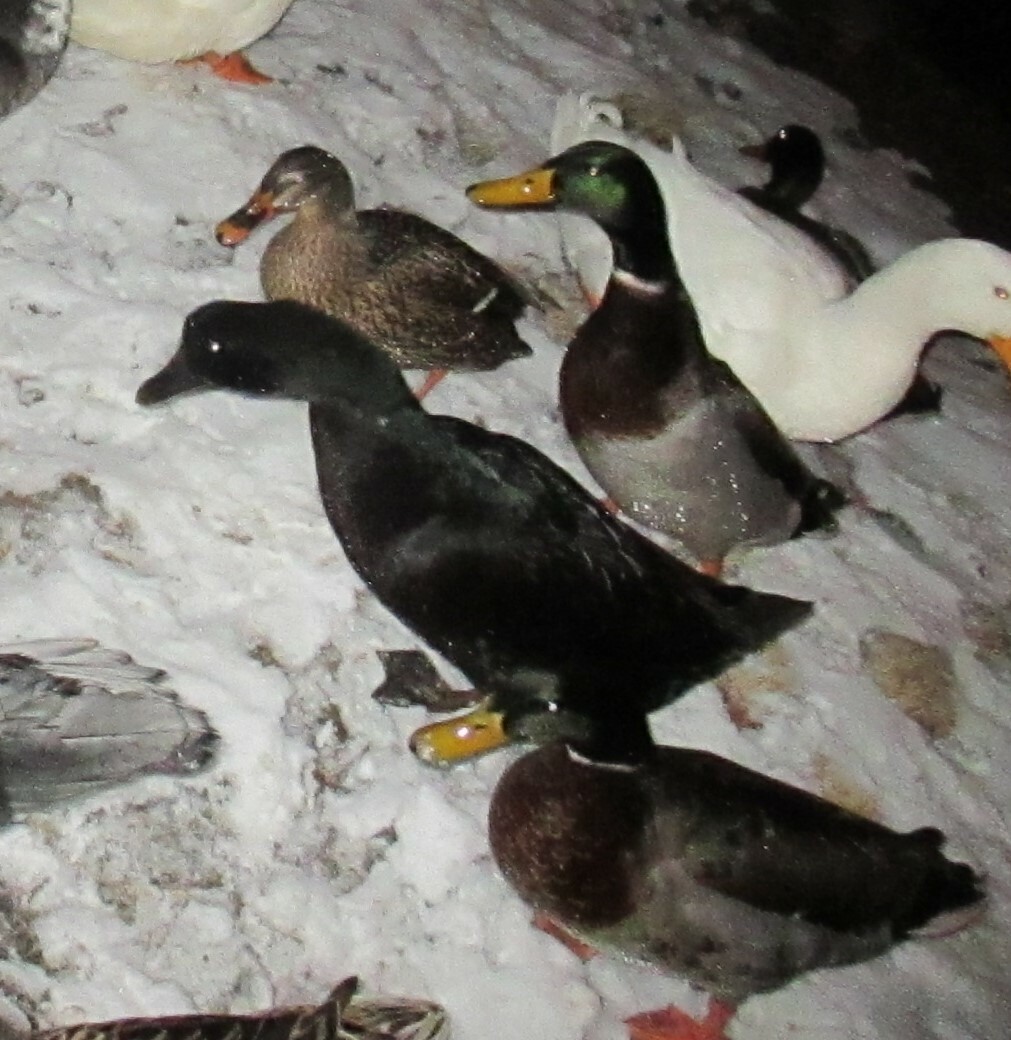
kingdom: Animalia
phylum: Chordata
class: Aves
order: Anseriformes
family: Anatidae
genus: Anas
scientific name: Anas platyrhynchos
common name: Mallard
